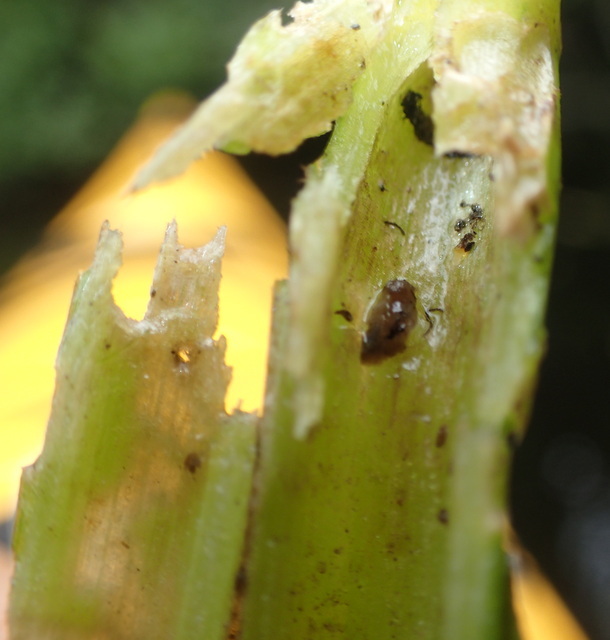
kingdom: Animalia
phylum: Arthropoda
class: Insecta
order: Coleoptera
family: Chrysomelidae
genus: Agasicles
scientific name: Agasicles hygrophila
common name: Alligatorweed flea beetle
